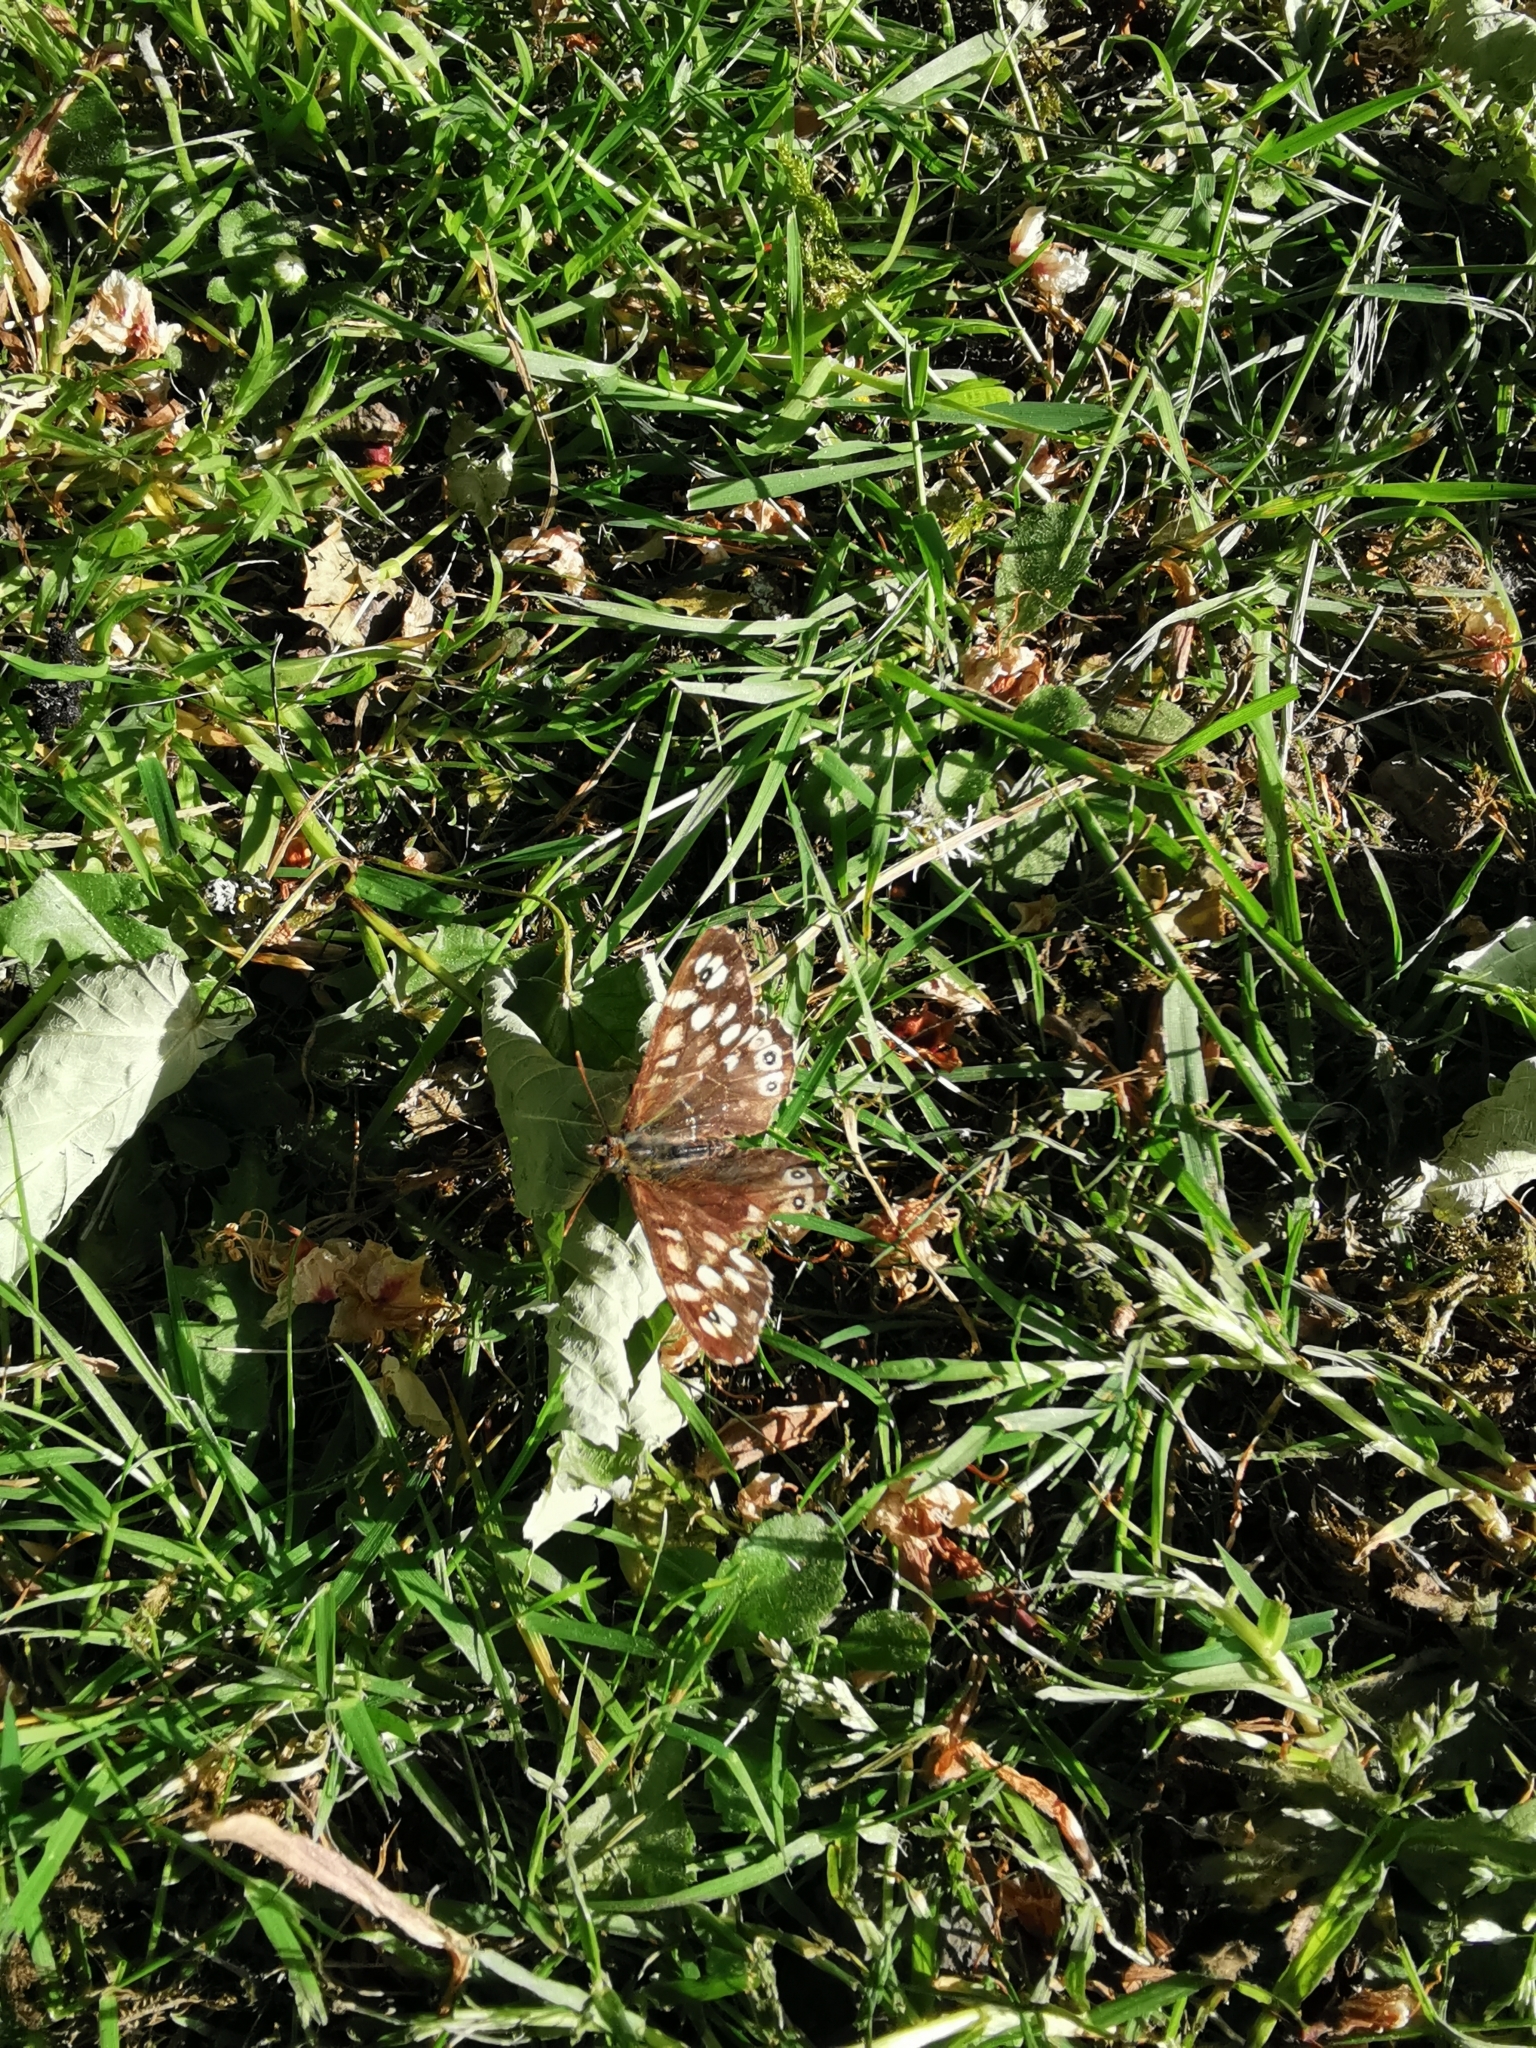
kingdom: Animalia
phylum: Arthropoda
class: Insecta
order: Lepidoptera
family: Nymphalidae
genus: Pararge
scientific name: Pararge aegeria
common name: Speckled wood
